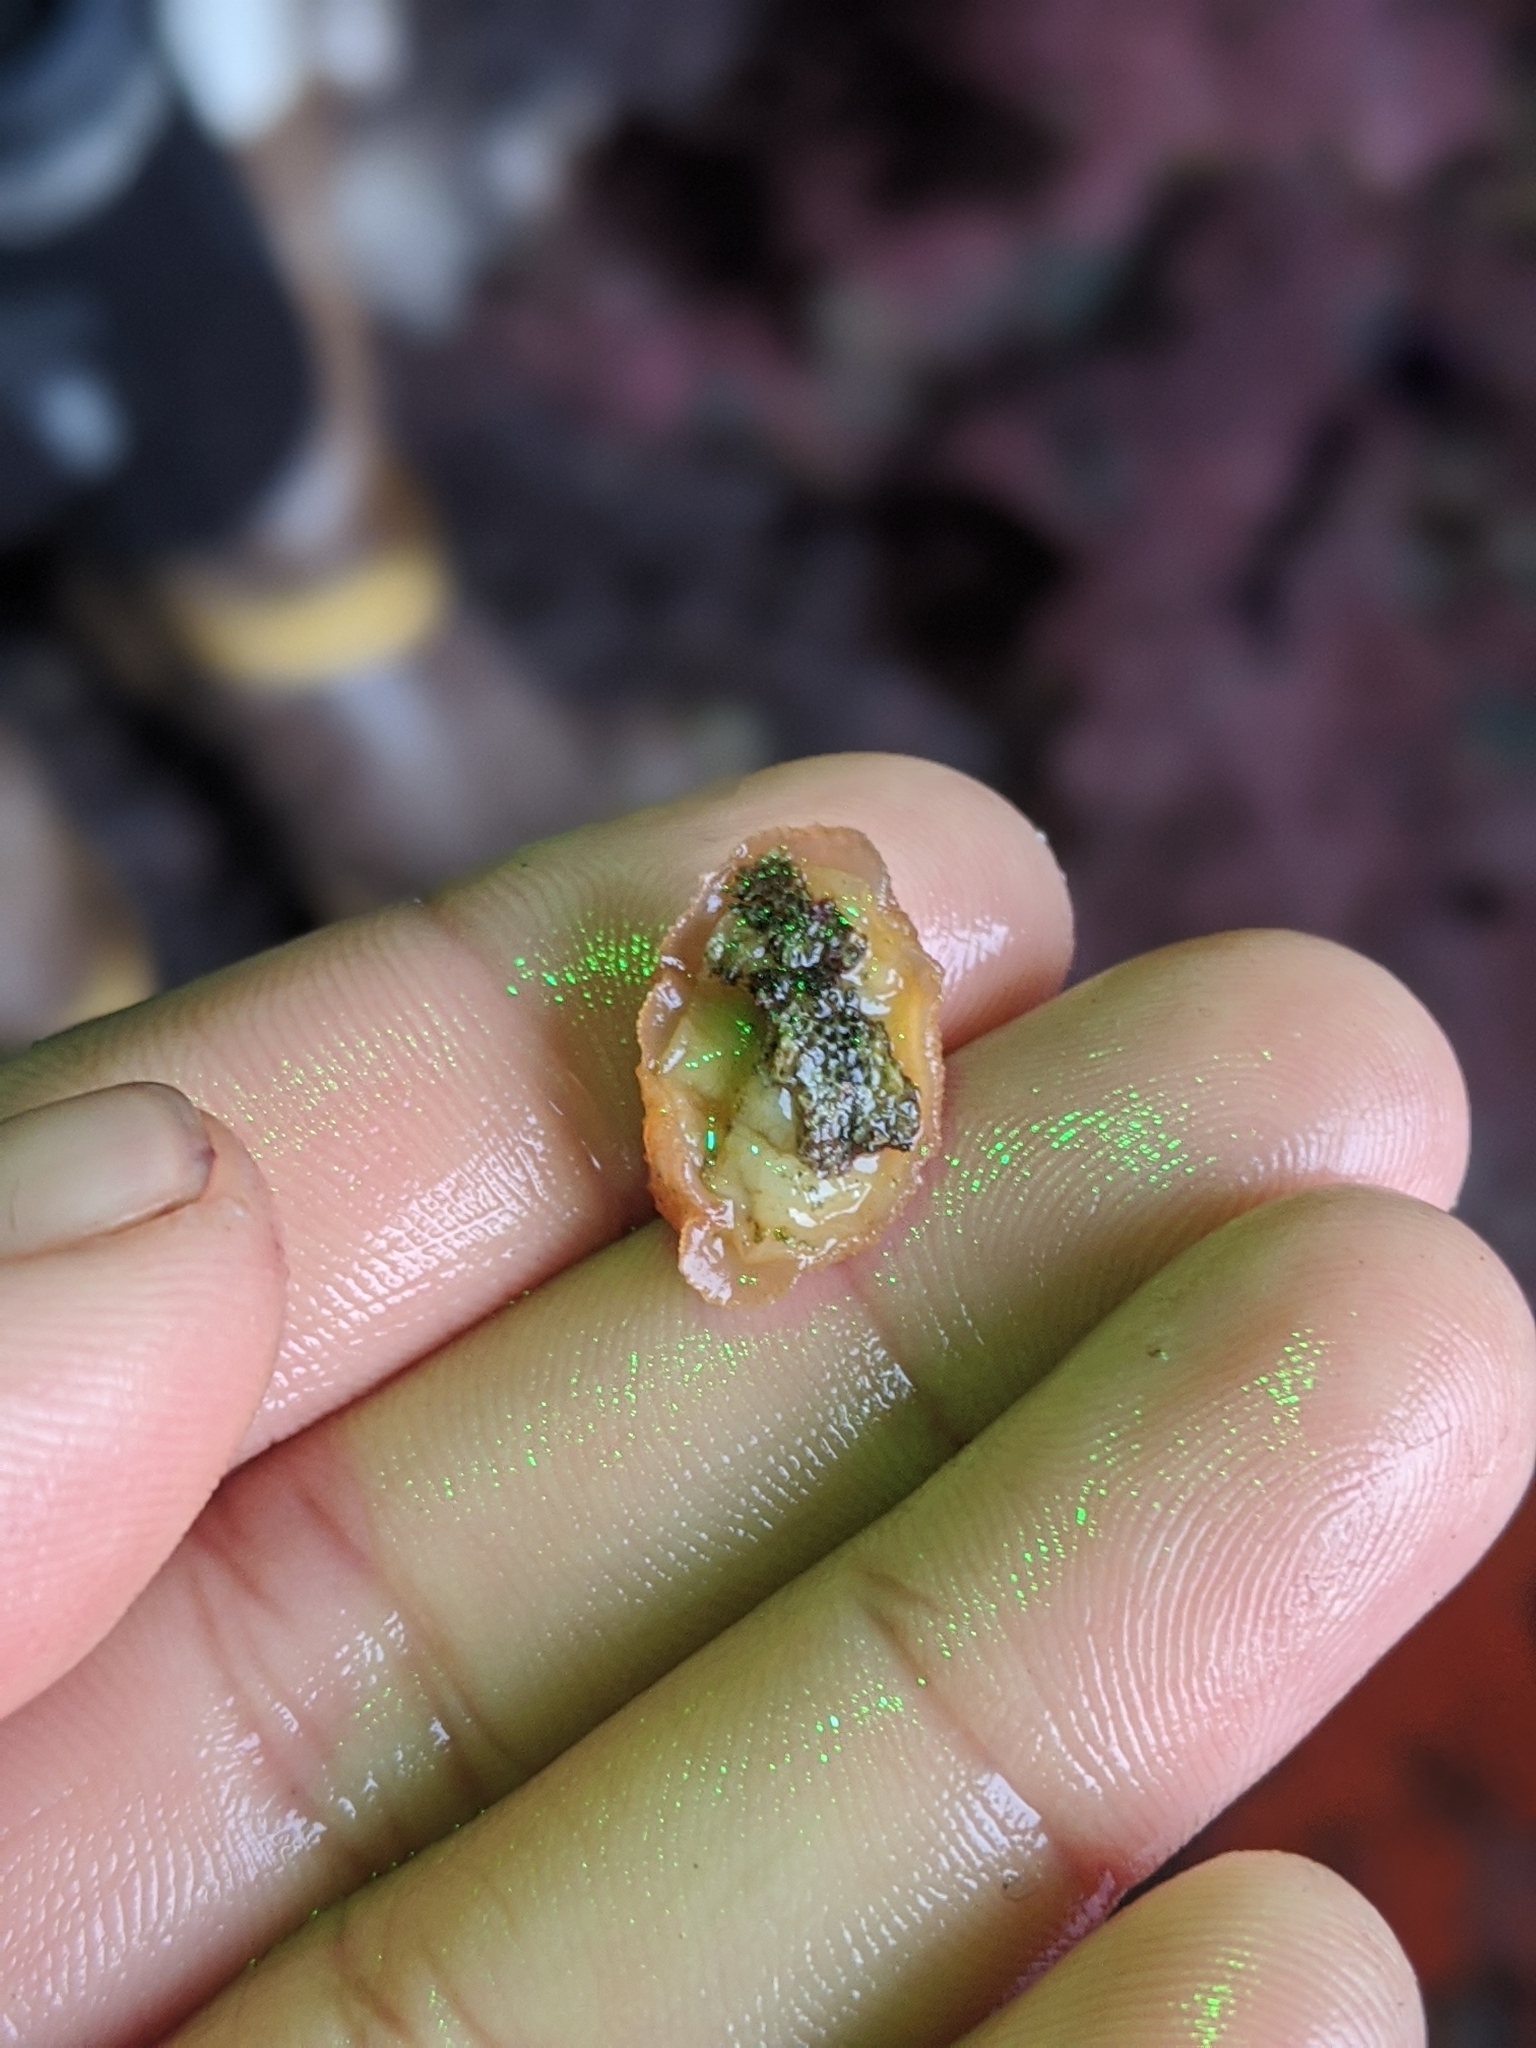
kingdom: Animalia
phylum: Mollusca
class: Gastropoda
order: Lepetellida
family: Fissurellidae
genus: Fissurellidea
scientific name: Fissurellidea bimaculata
